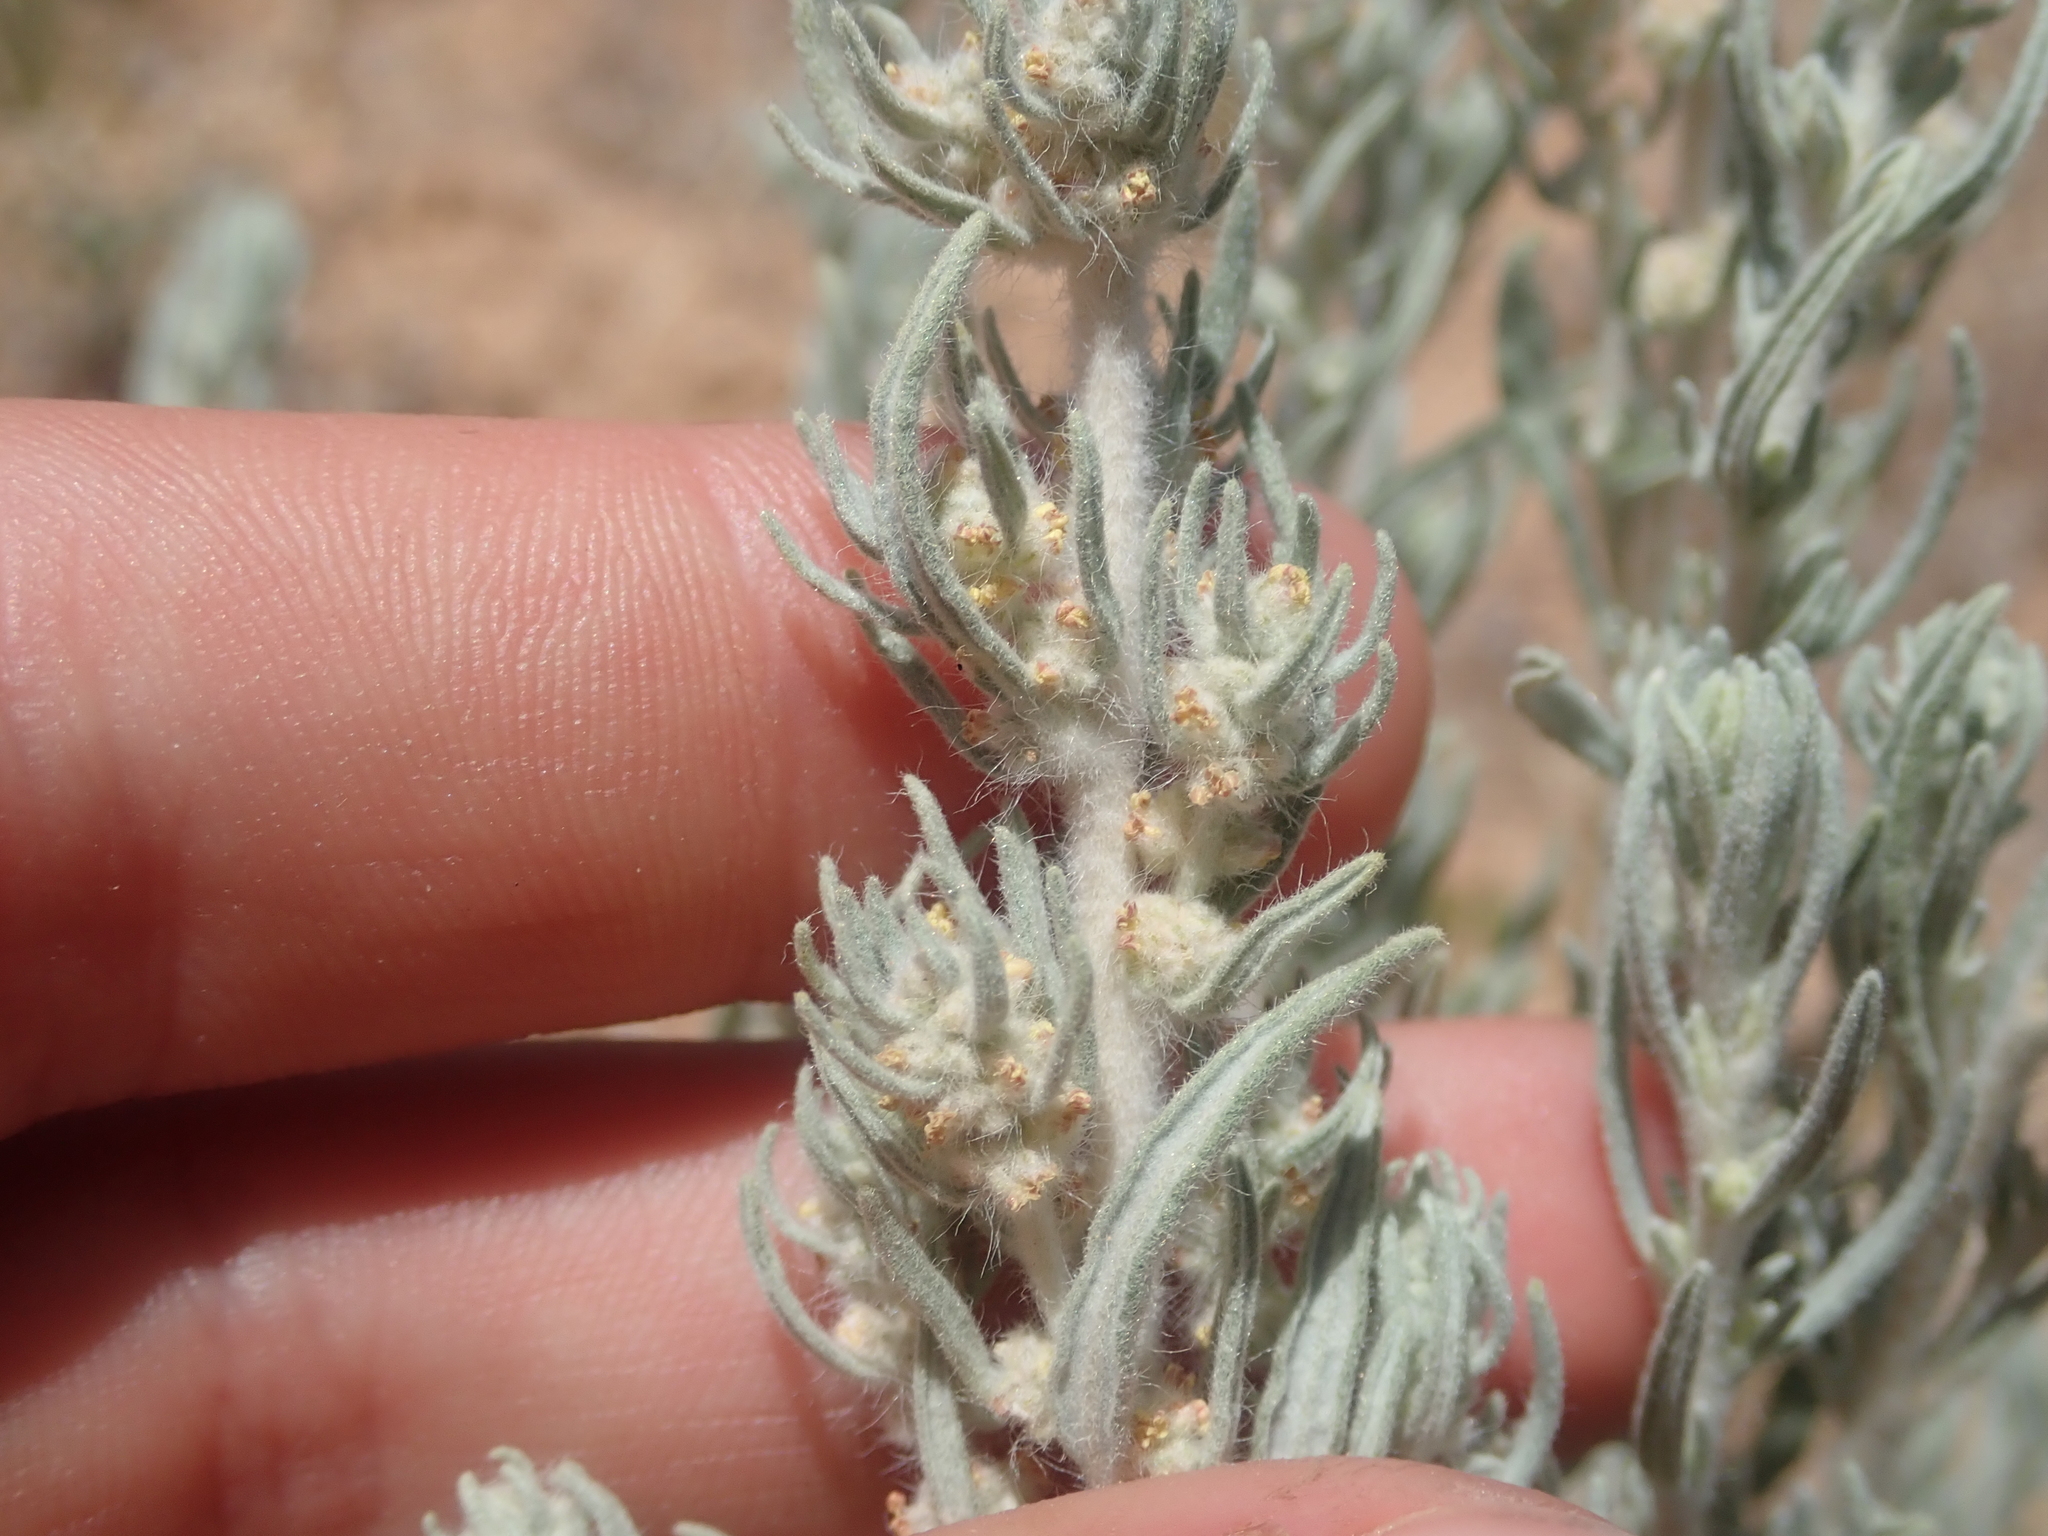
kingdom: Plantae
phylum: Tracheophyta
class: Magnoliopsida
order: Caryophyllales
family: Amaranthaceae
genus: Krascheninnikovia
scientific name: Krascheninnikovia lanata
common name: Winterfat
